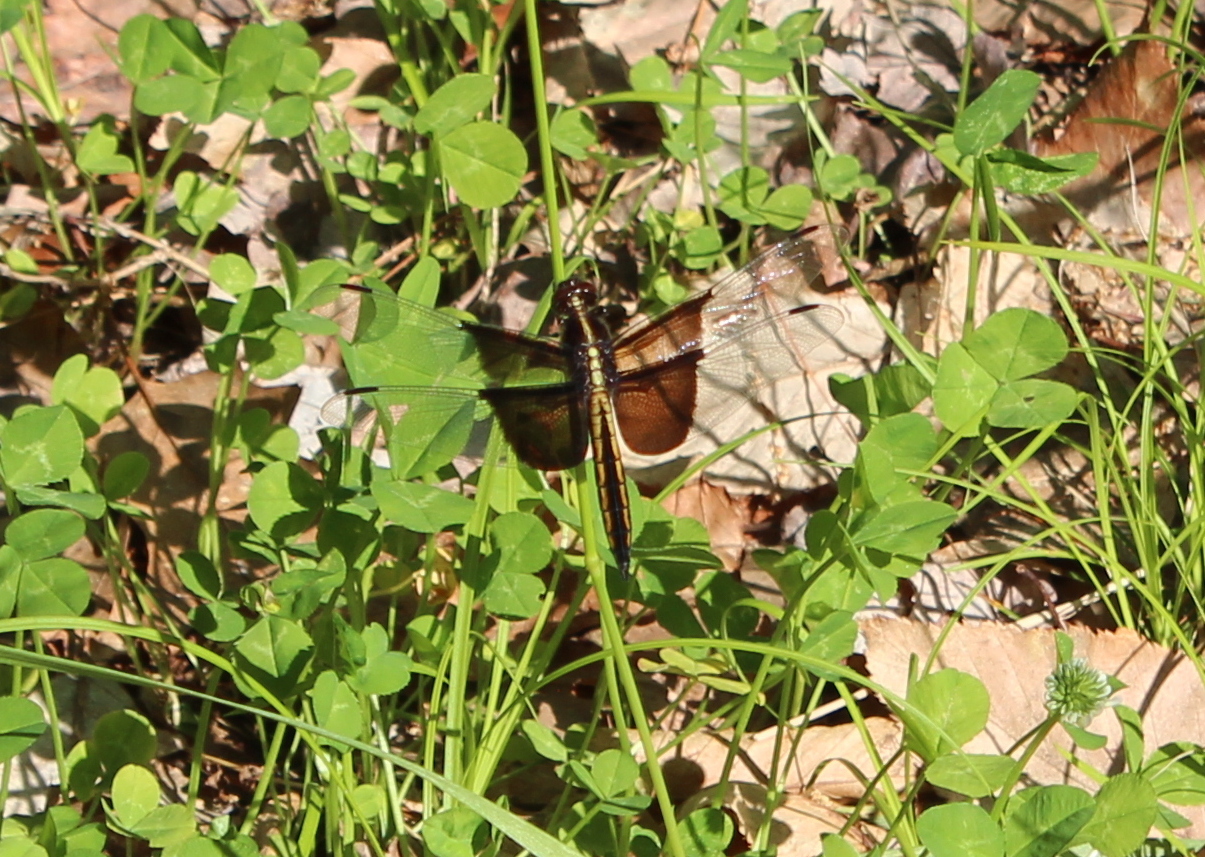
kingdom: Animalia
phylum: Arthropoda
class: Insecta
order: Odonata
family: Libellulidae
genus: Libellula
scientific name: Libellula luctuosa
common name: Widow skimmer
